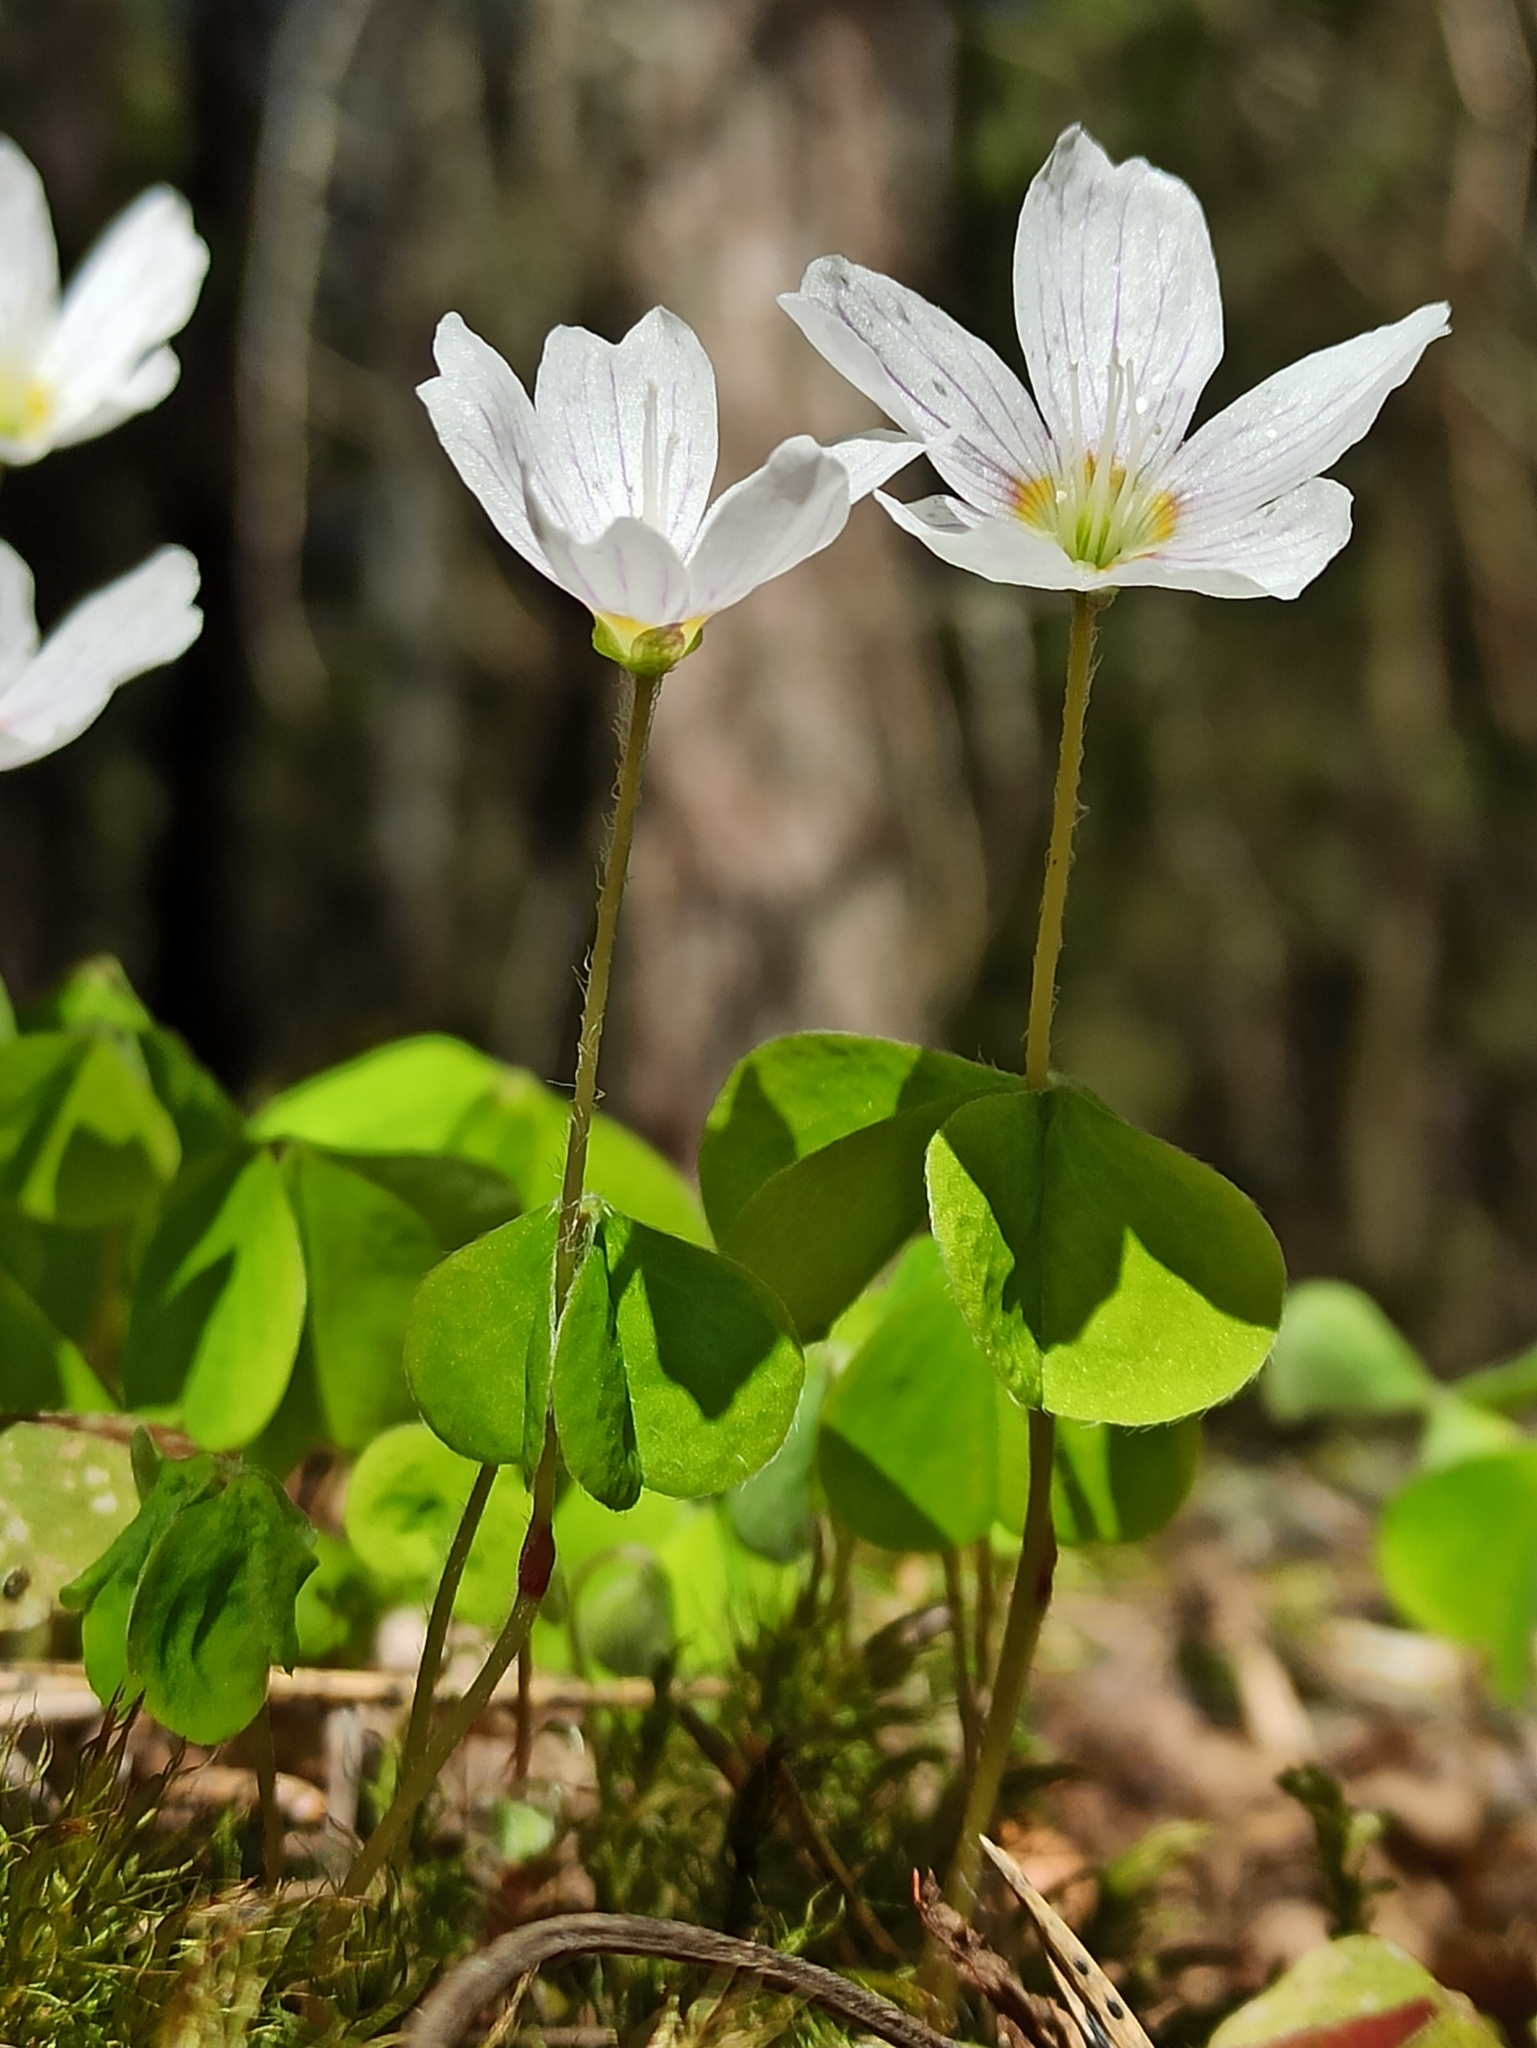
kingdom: Plantae
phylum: Tracheophyta
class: Magnoliopsida
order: Oxalidales
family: Oxalidaceae
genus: Oxalis
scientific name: Oxalis acetosella
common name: Wood-sorrel
